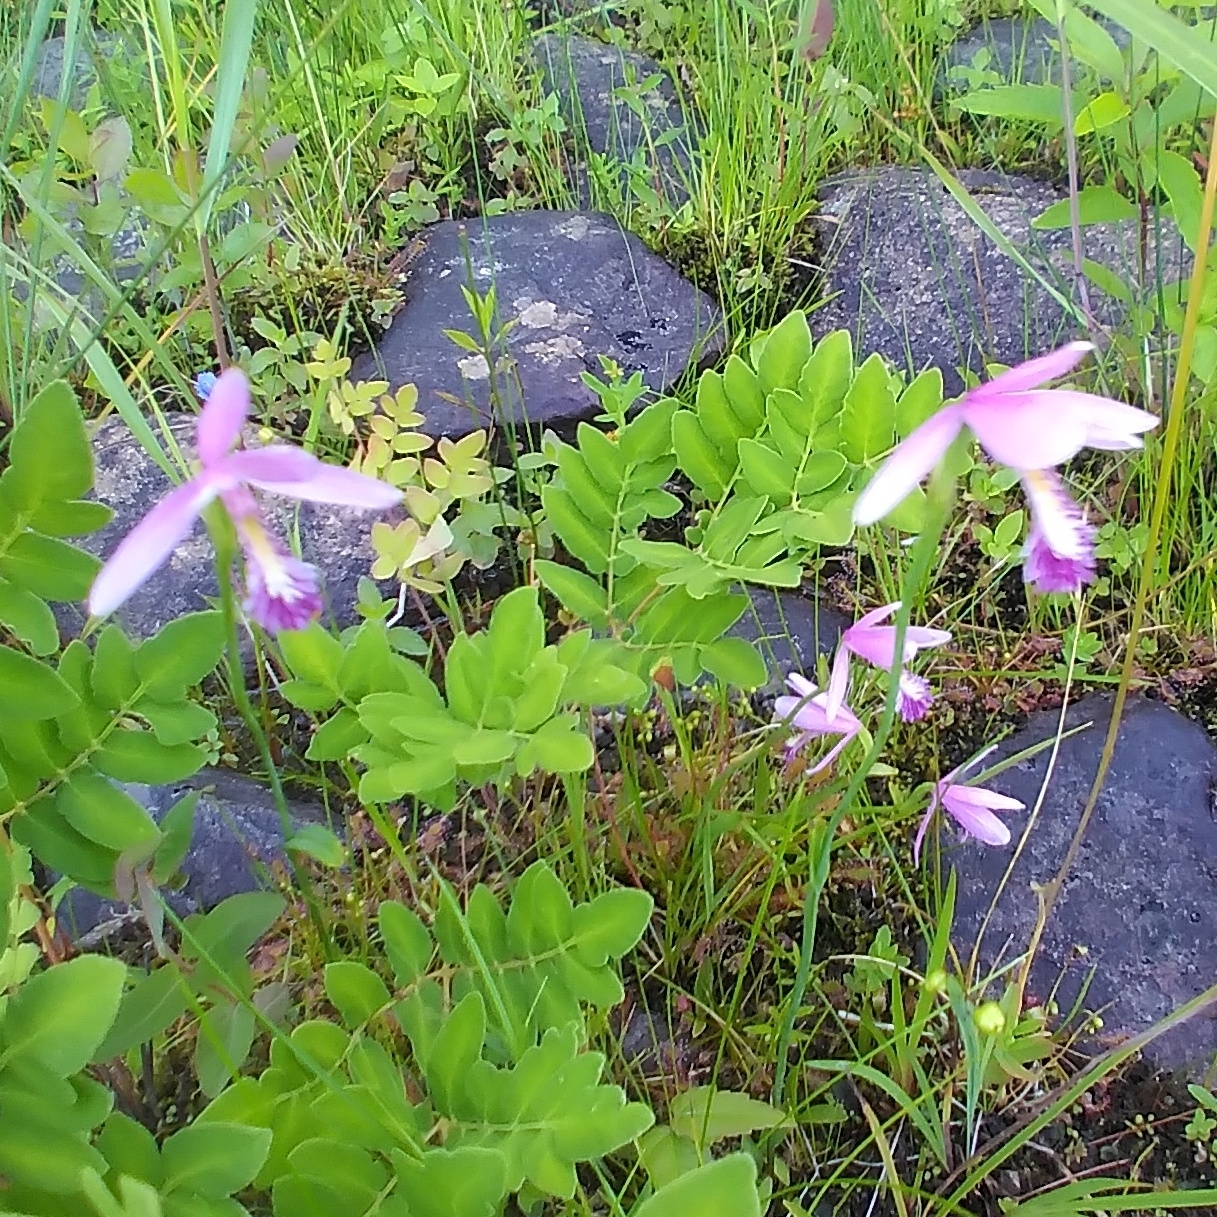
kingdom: Plantae
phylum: Tracheophyta
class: Liliopsida
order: Asparagales
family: Orchidaceae
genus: Pogonia
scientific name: Pogonia ophioglossoides
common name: Rose pogonia
